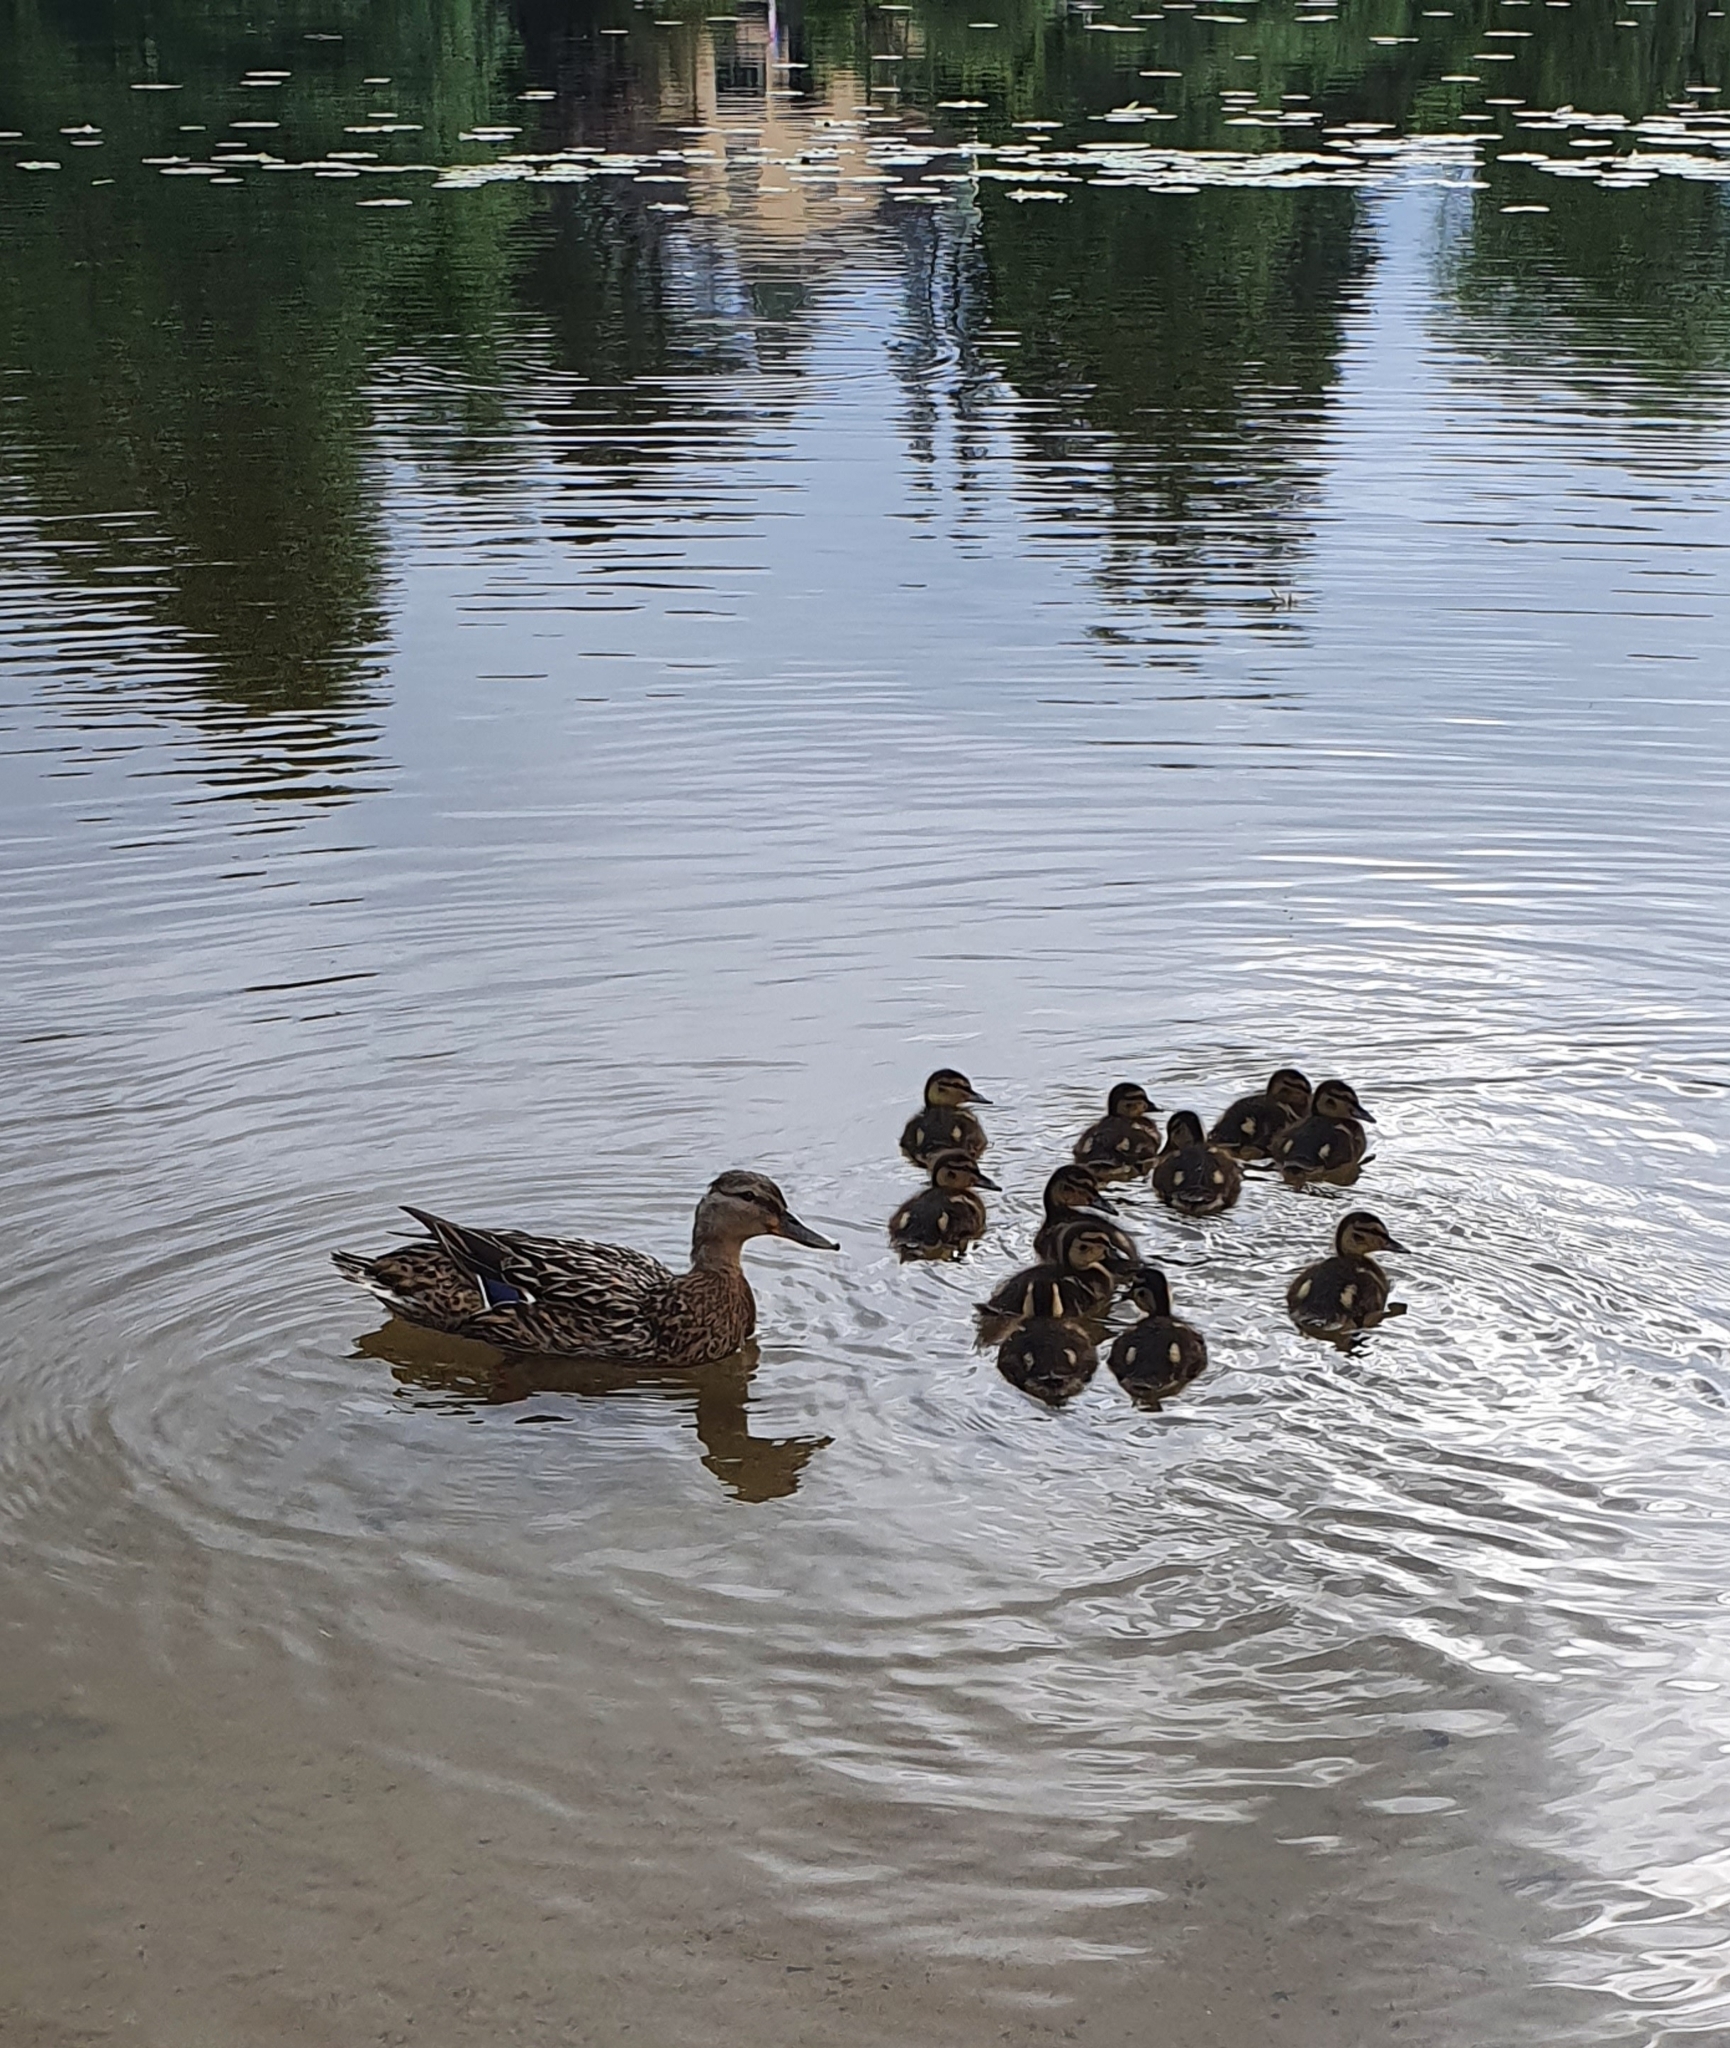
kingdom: Animalia
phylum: Chordata
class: Aves
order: Anseriformes
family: Anatidae
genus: Anas
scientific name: Anas platyrhynchos
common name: Mallard
